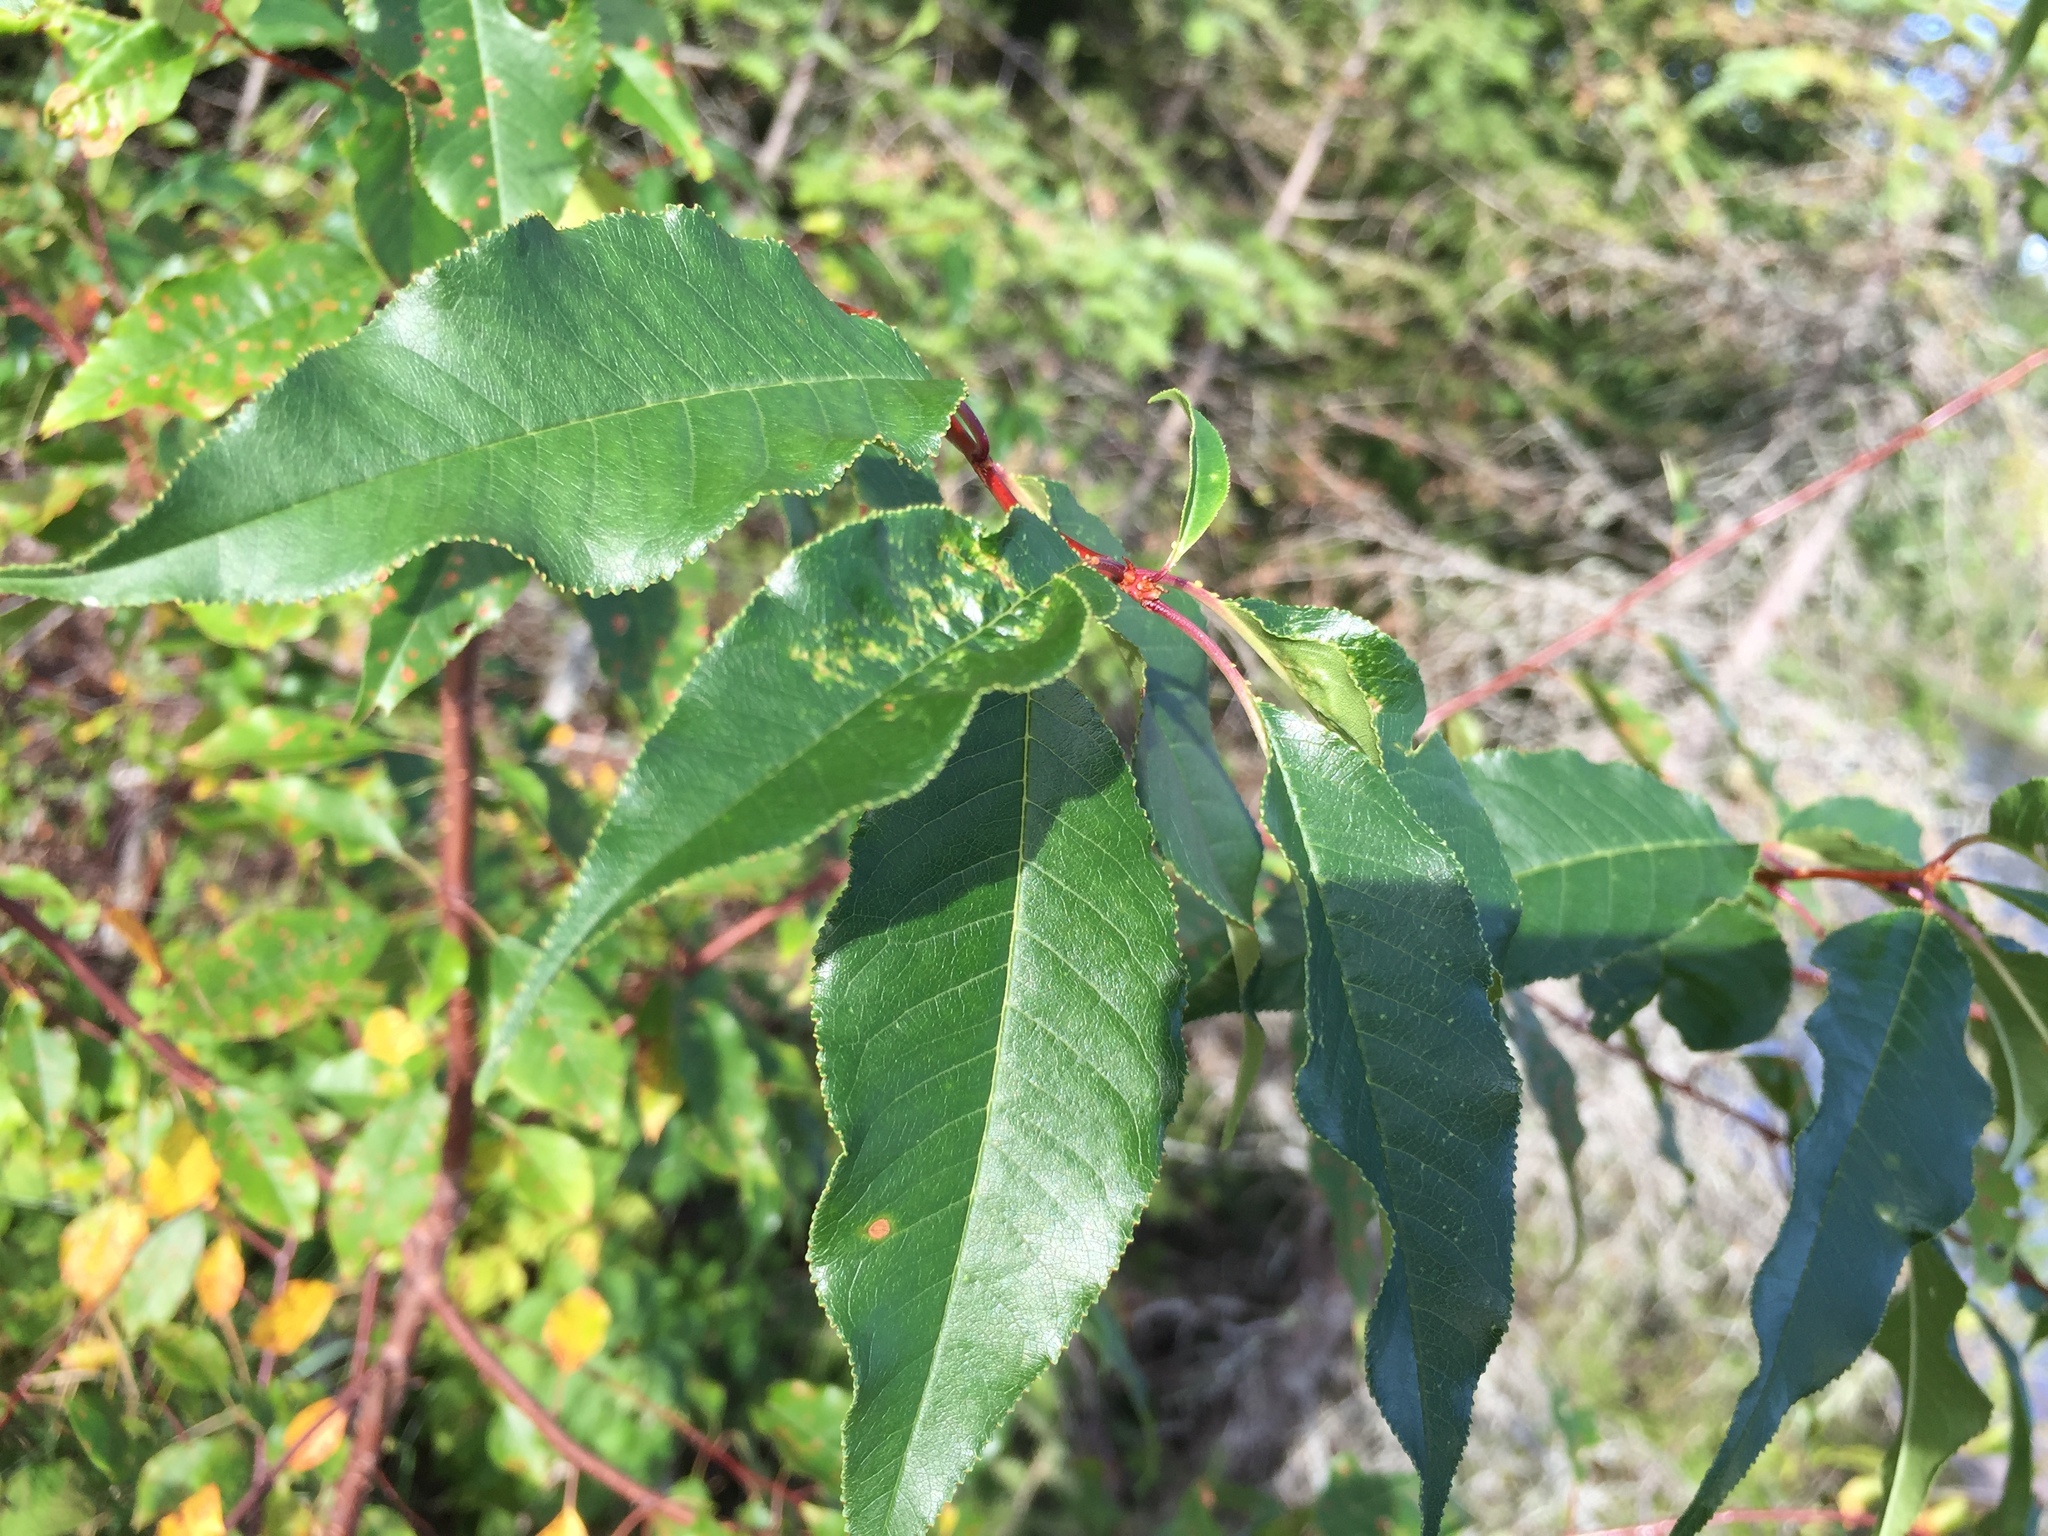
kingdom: Plantae
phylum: Tracheophyta
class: Magnoliopsida
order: Rosales
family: Rosaceae
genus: Prunus
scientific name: Prunus pensylvanica
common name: Pin cherry
